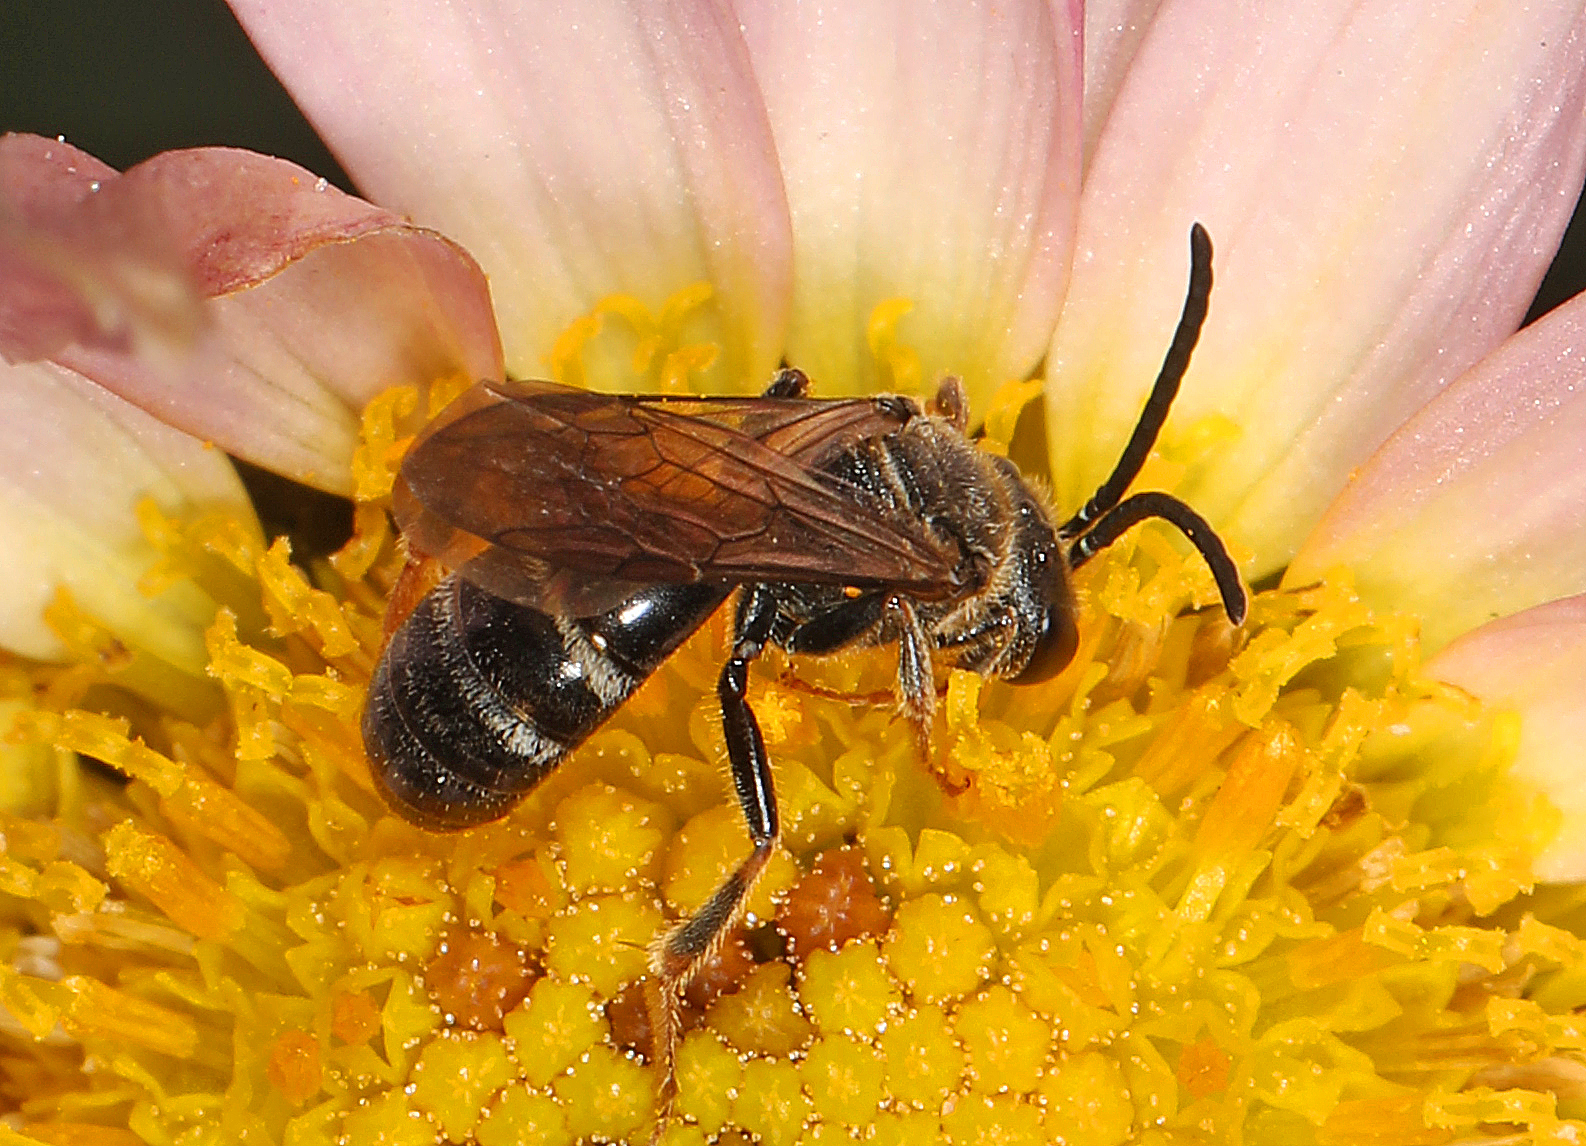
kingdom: Animalia
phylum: Arthropoda
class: Insecta
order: Hymenoptera
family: Halictidae
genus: Lasioglossum
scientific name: Lasioglossum fuscipenne
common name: Brown-winged sweat bee
